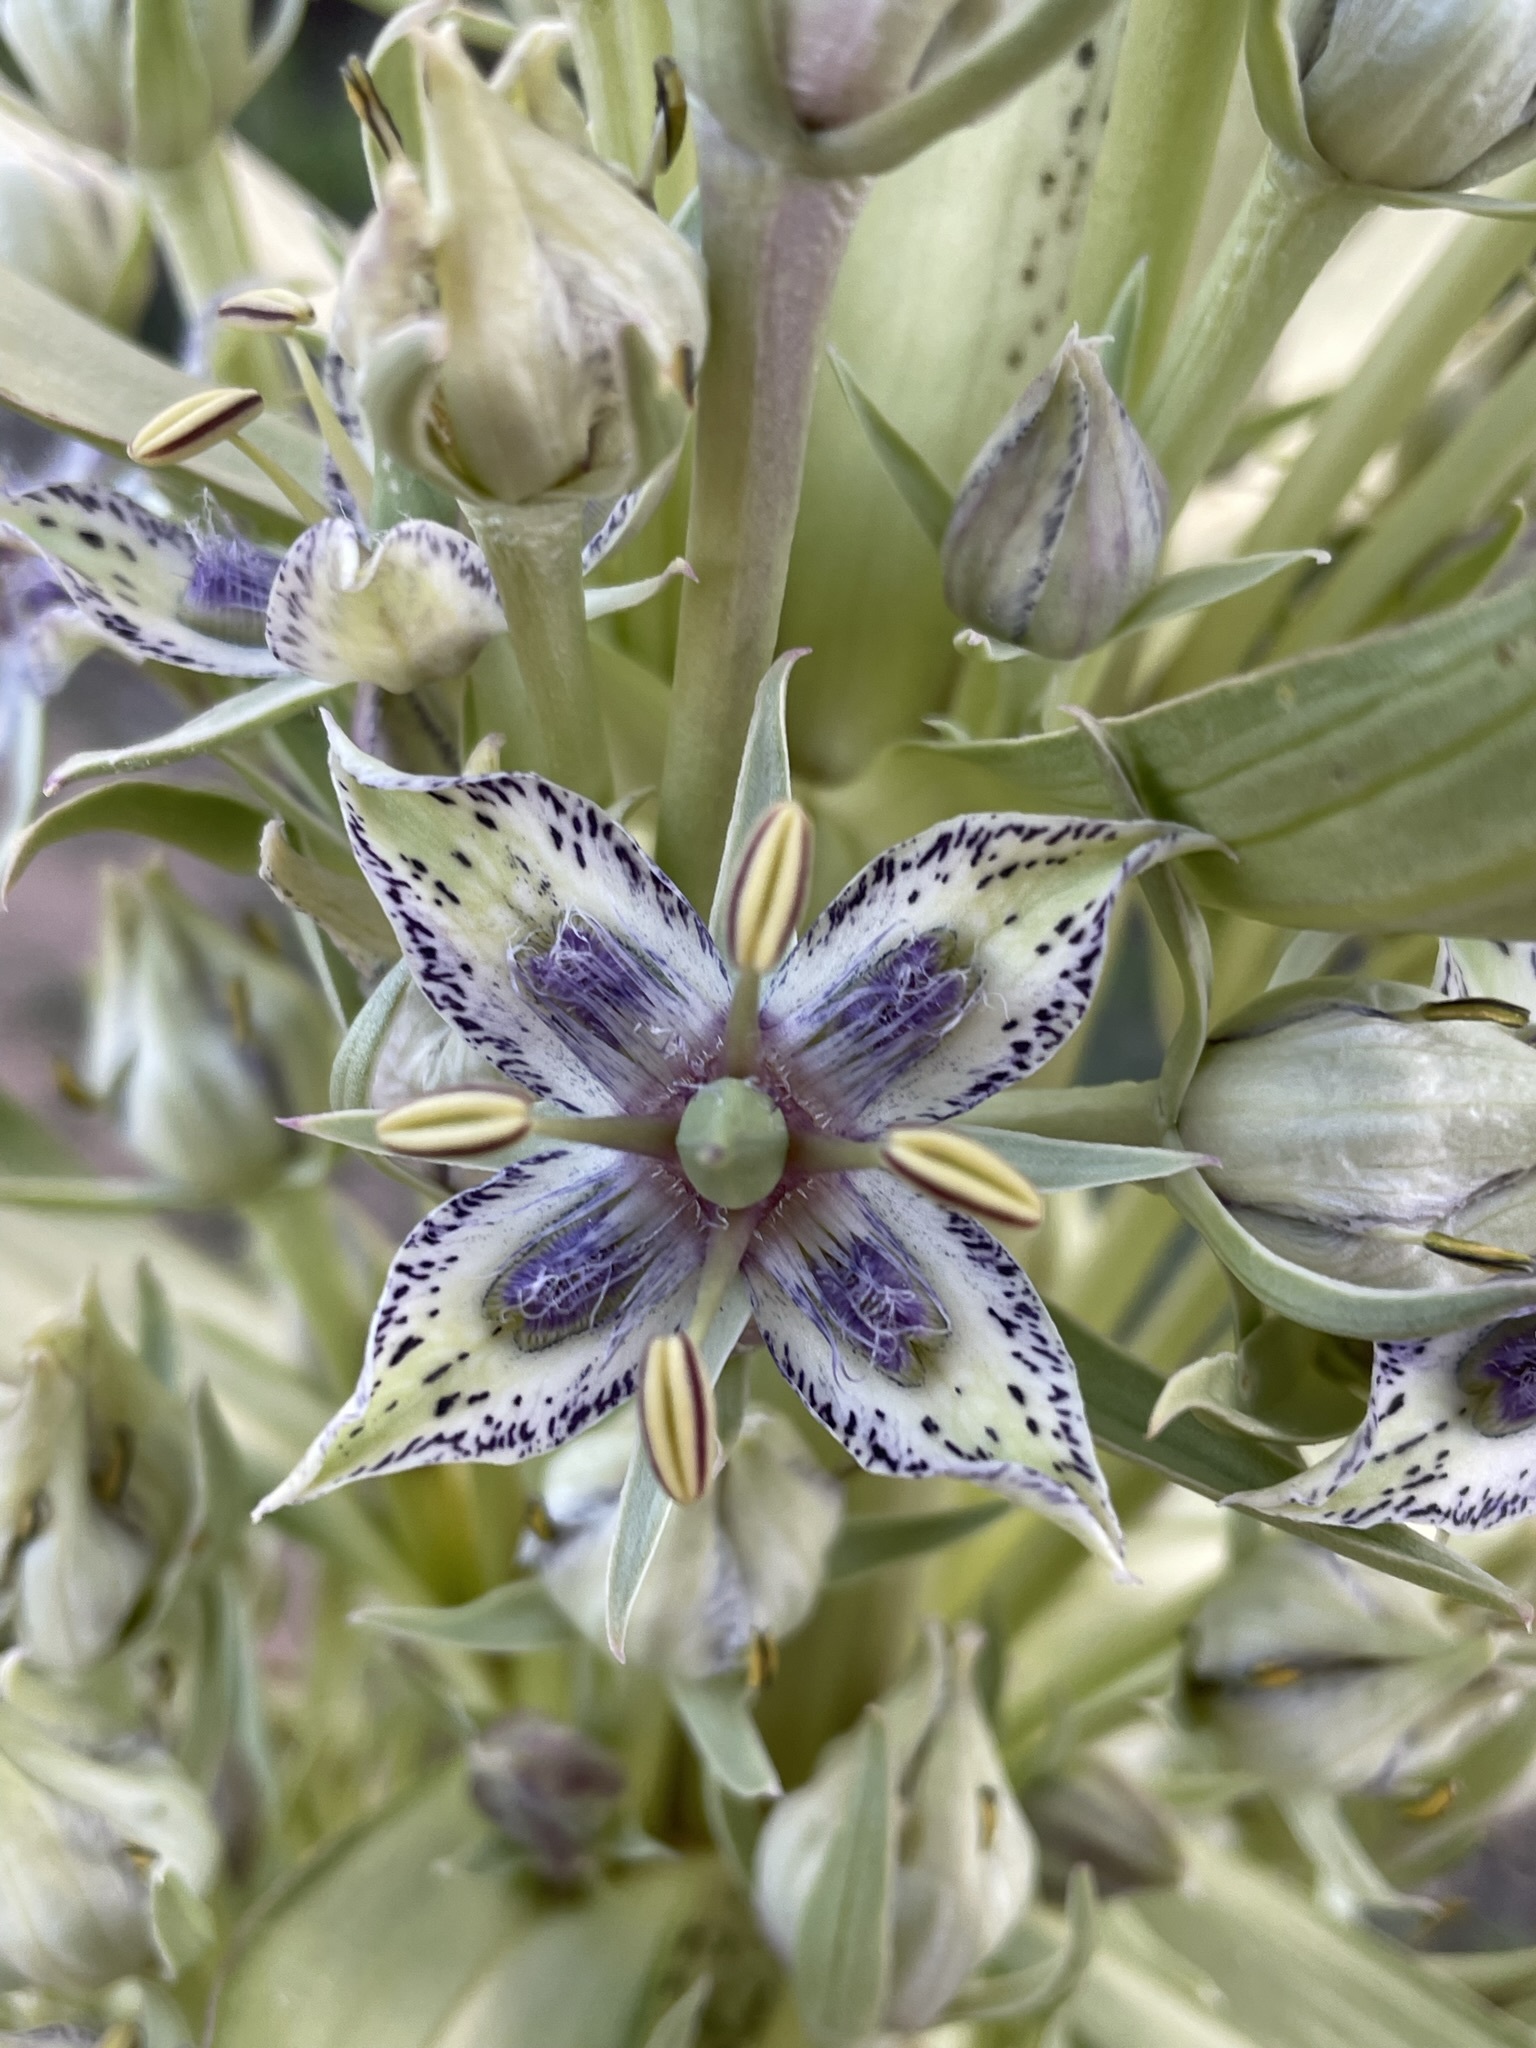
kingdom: Plantae
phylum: Tracheophyta
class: Magnoliopsida
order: Gentianales
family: Gentianaceae
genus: Frasera
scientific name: Frasera speciosa
